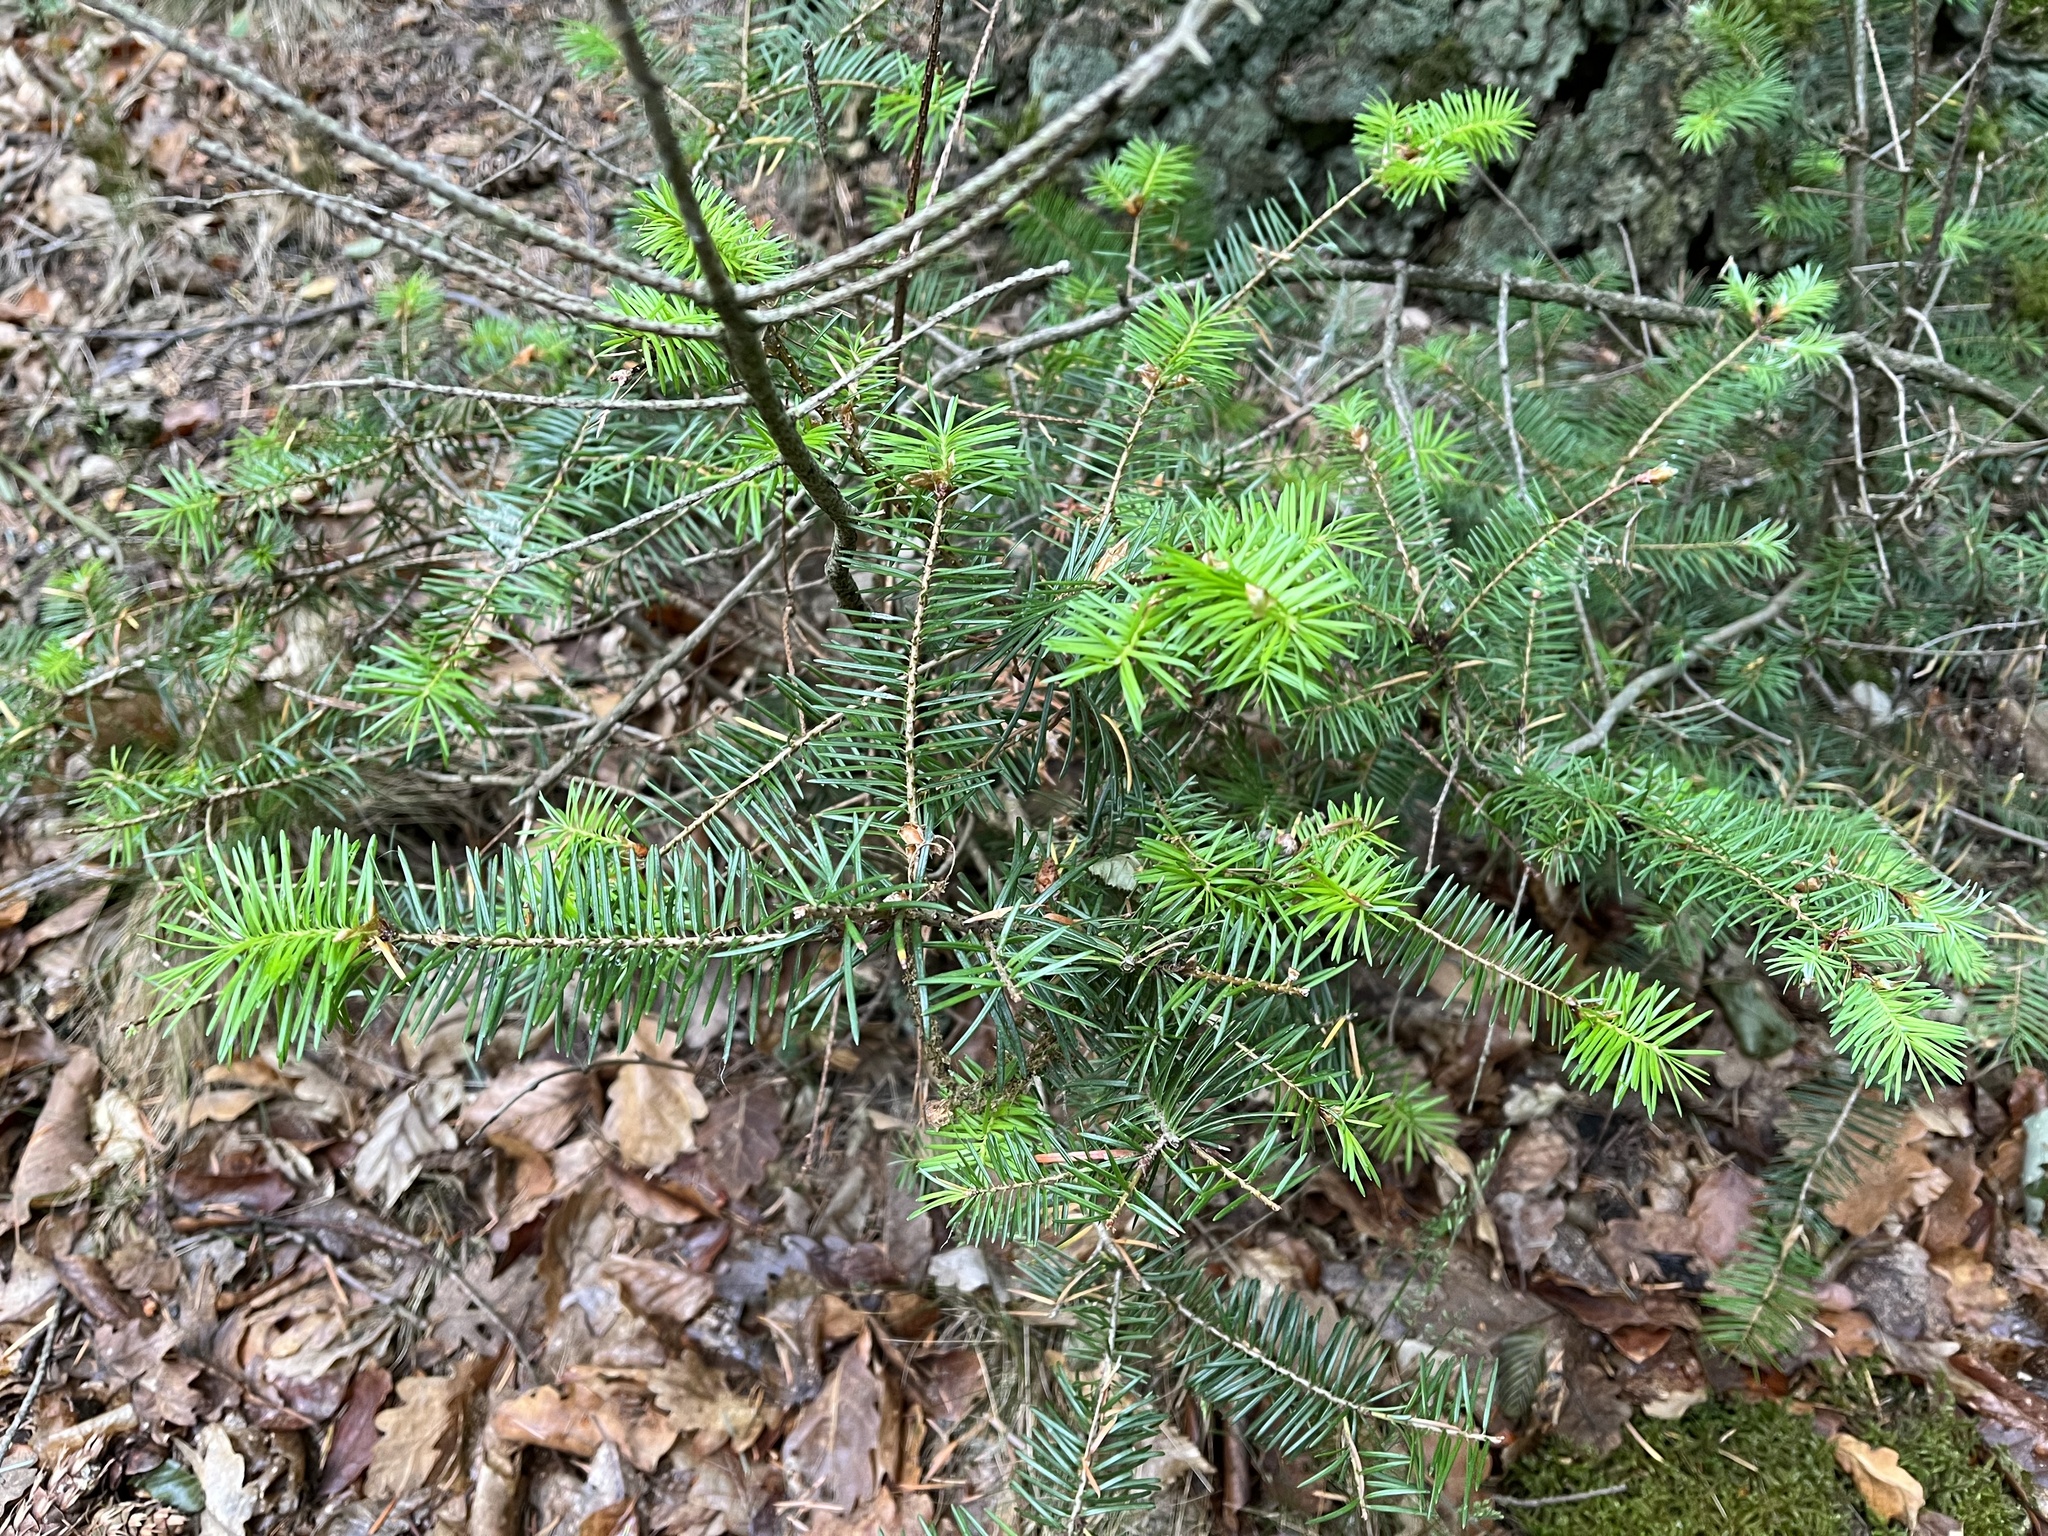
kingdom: Plantae
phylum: Tracheophyta
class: Pinopsida
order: Pinales
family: Pinaceae
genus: Pseudotsuga
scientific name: Pseudotsuga menziesii
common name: Douglas fir
